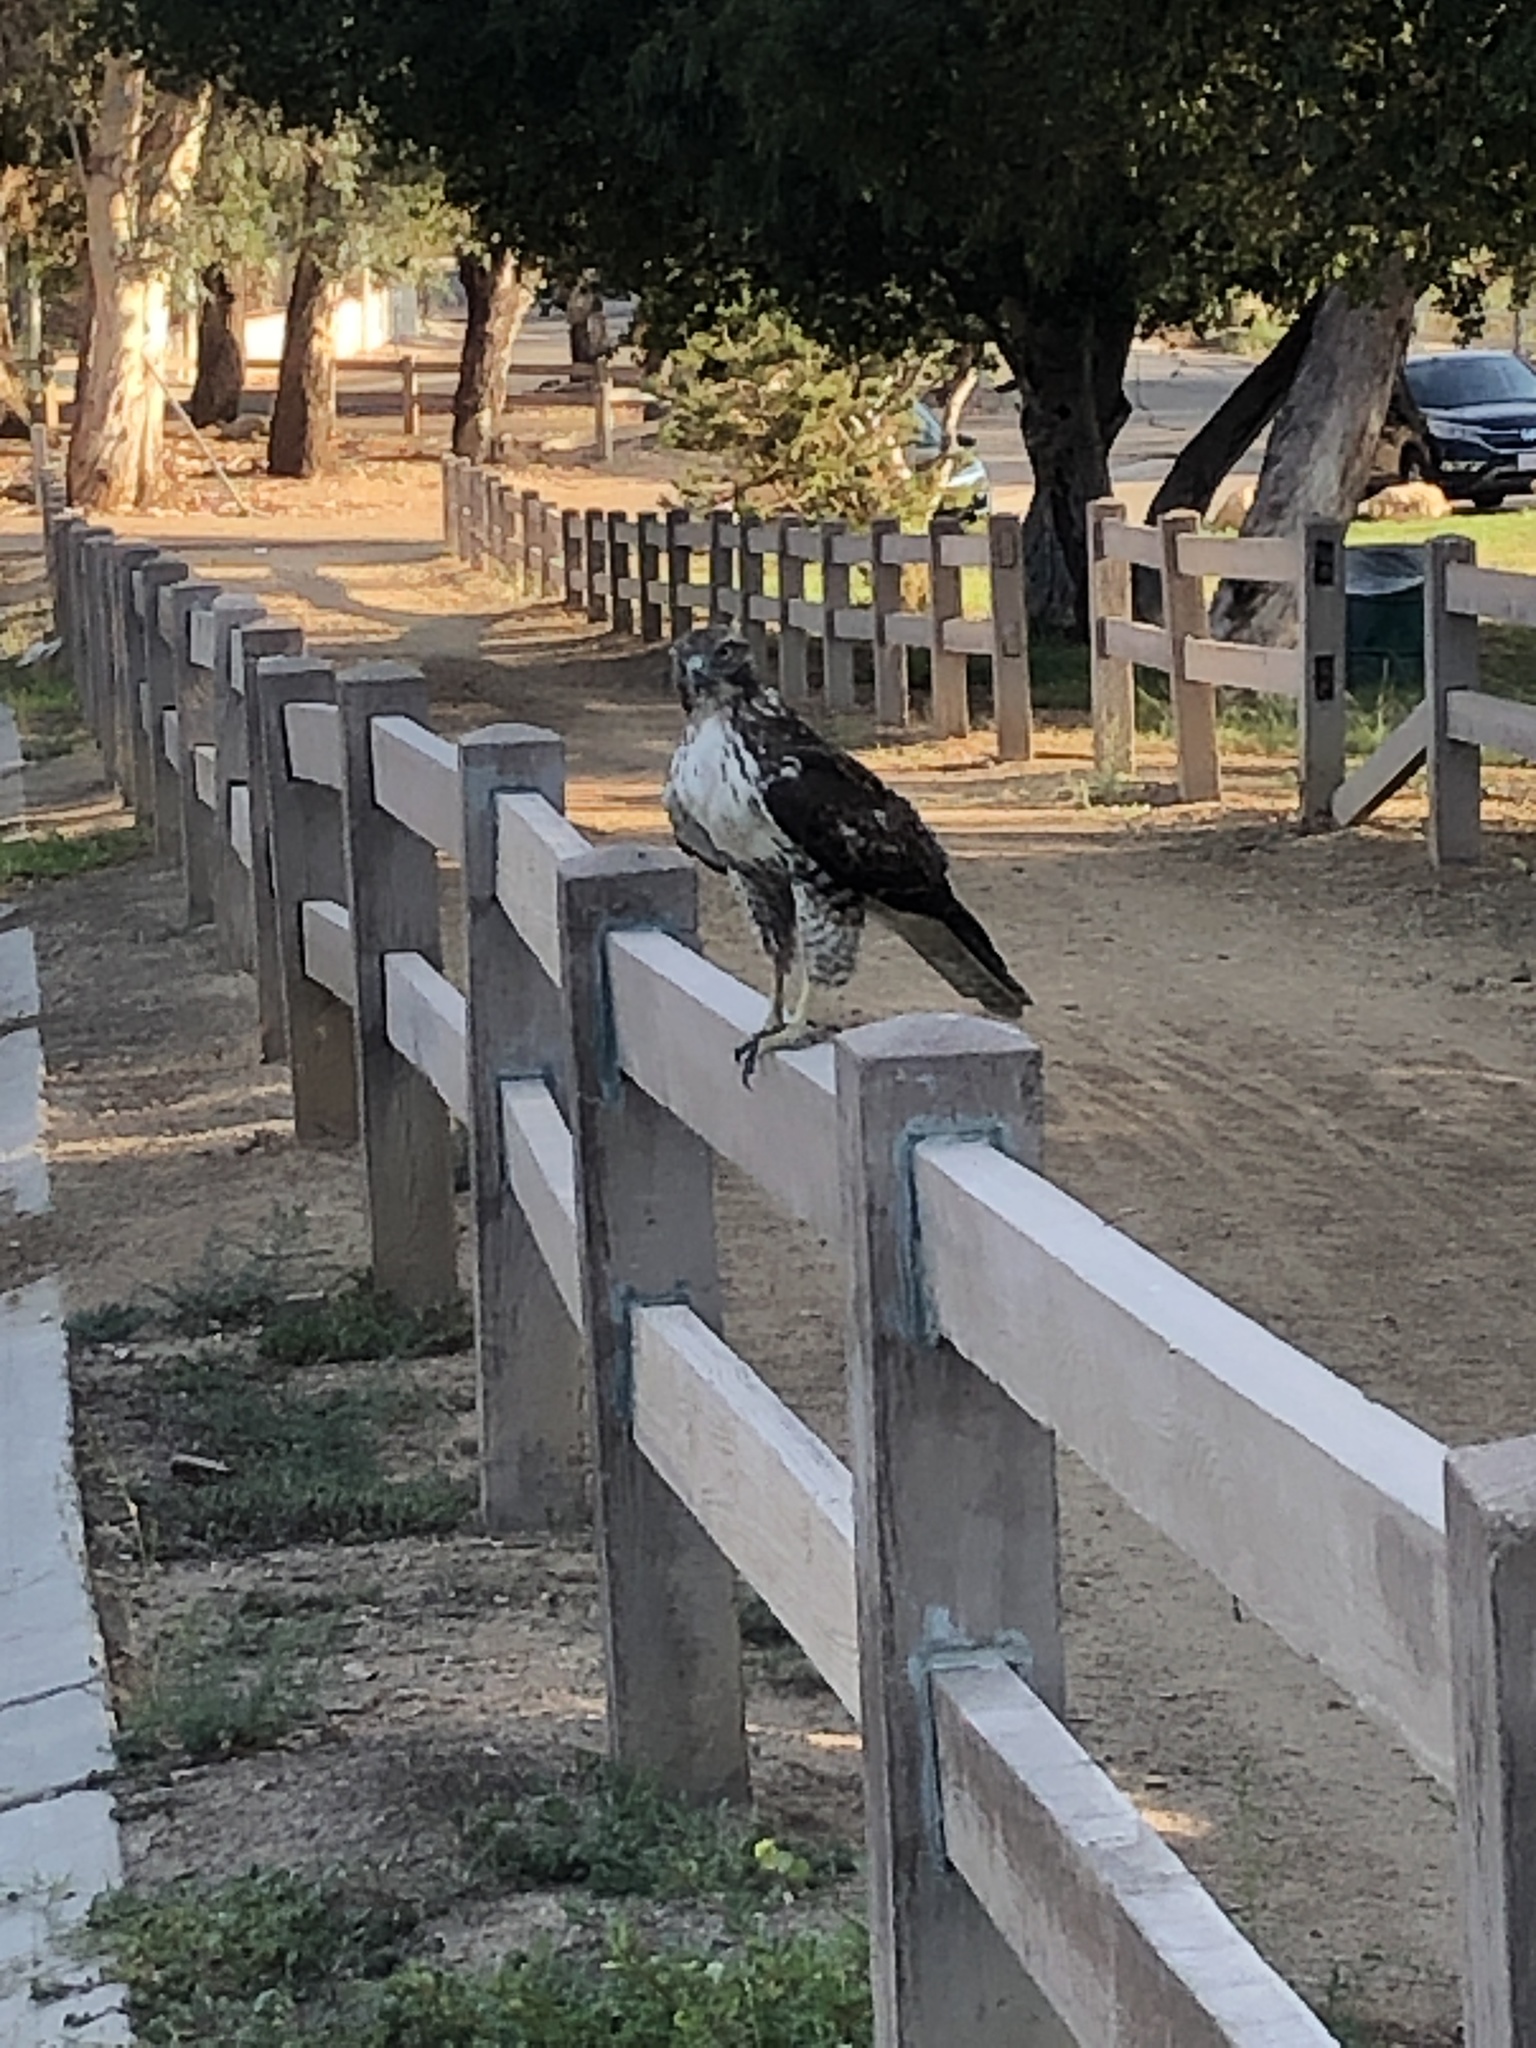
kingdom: Animalia
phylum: Chordata
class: Aves
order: Accipitriformes
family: Accipitridae
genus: Buteo
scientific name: Buteo jamaicensis
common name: Red-tailed hawk
